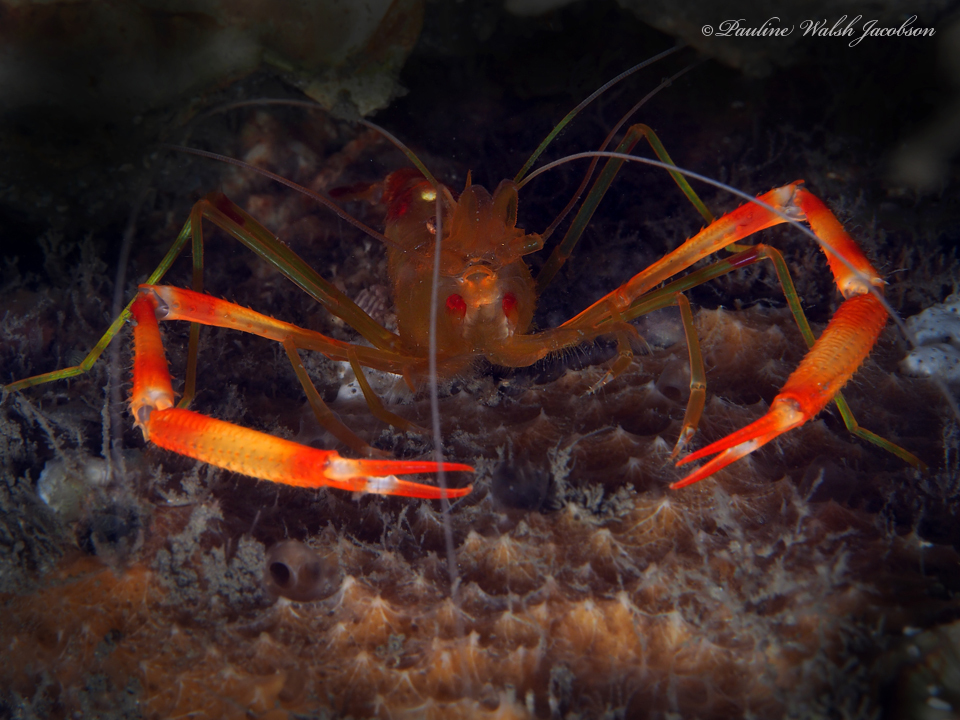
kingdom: Animalia
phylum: Arthropoda
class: Malacostraca
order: Decapoda
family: Stenopodidae
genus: Stenopus
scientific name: Stenopus scutellatus
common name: Golden coral shrimp
